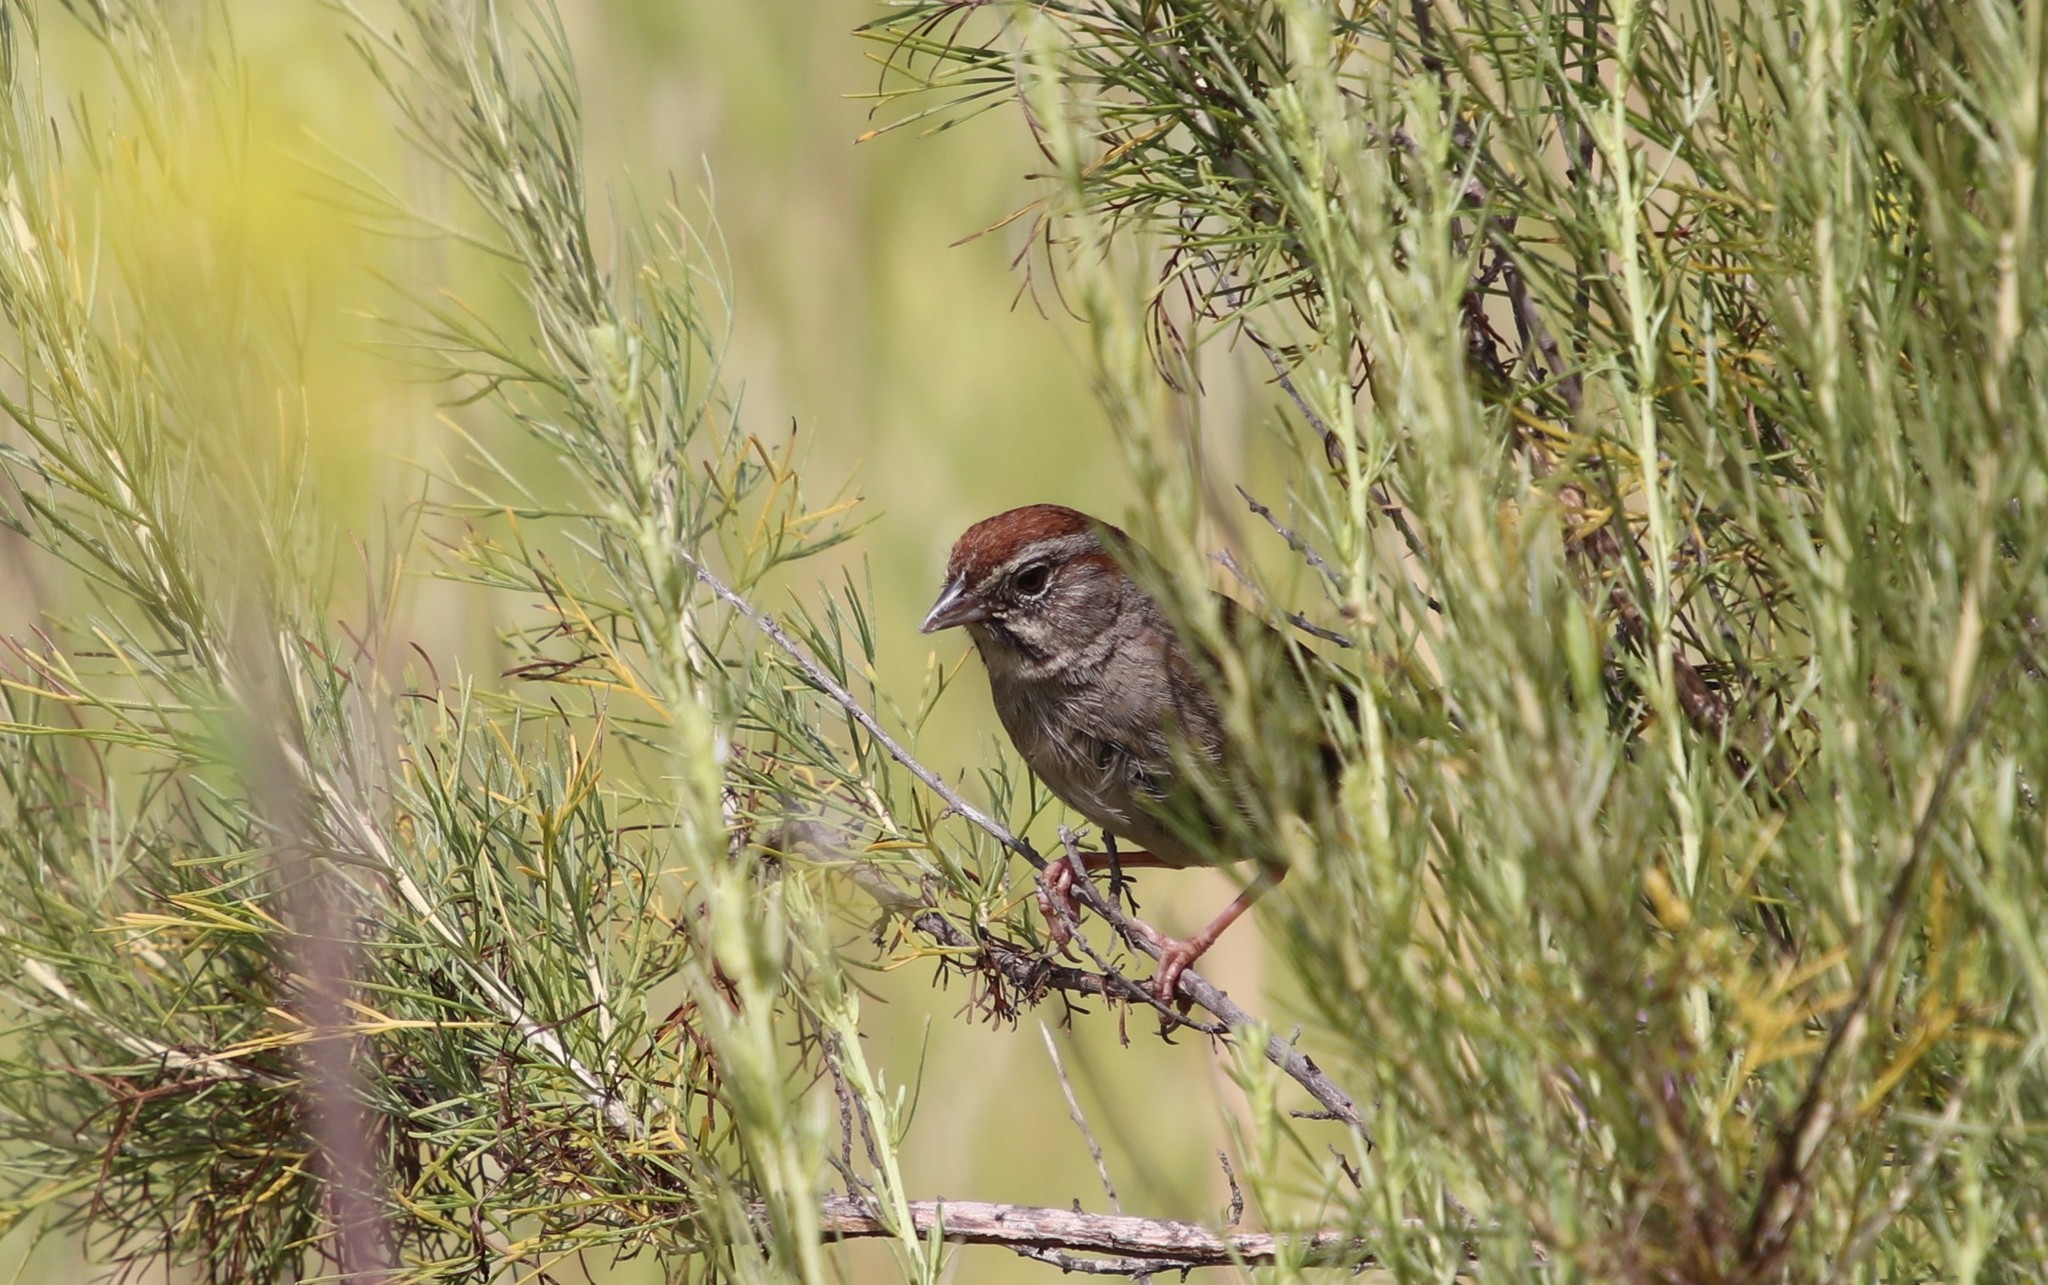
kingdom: Animalia
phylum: Chordata
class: Aves
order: Passeriformes
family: Passerellidae
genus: Aimophila
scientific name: Aimophila ruficeps
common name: Rufous-crowned sparrow
